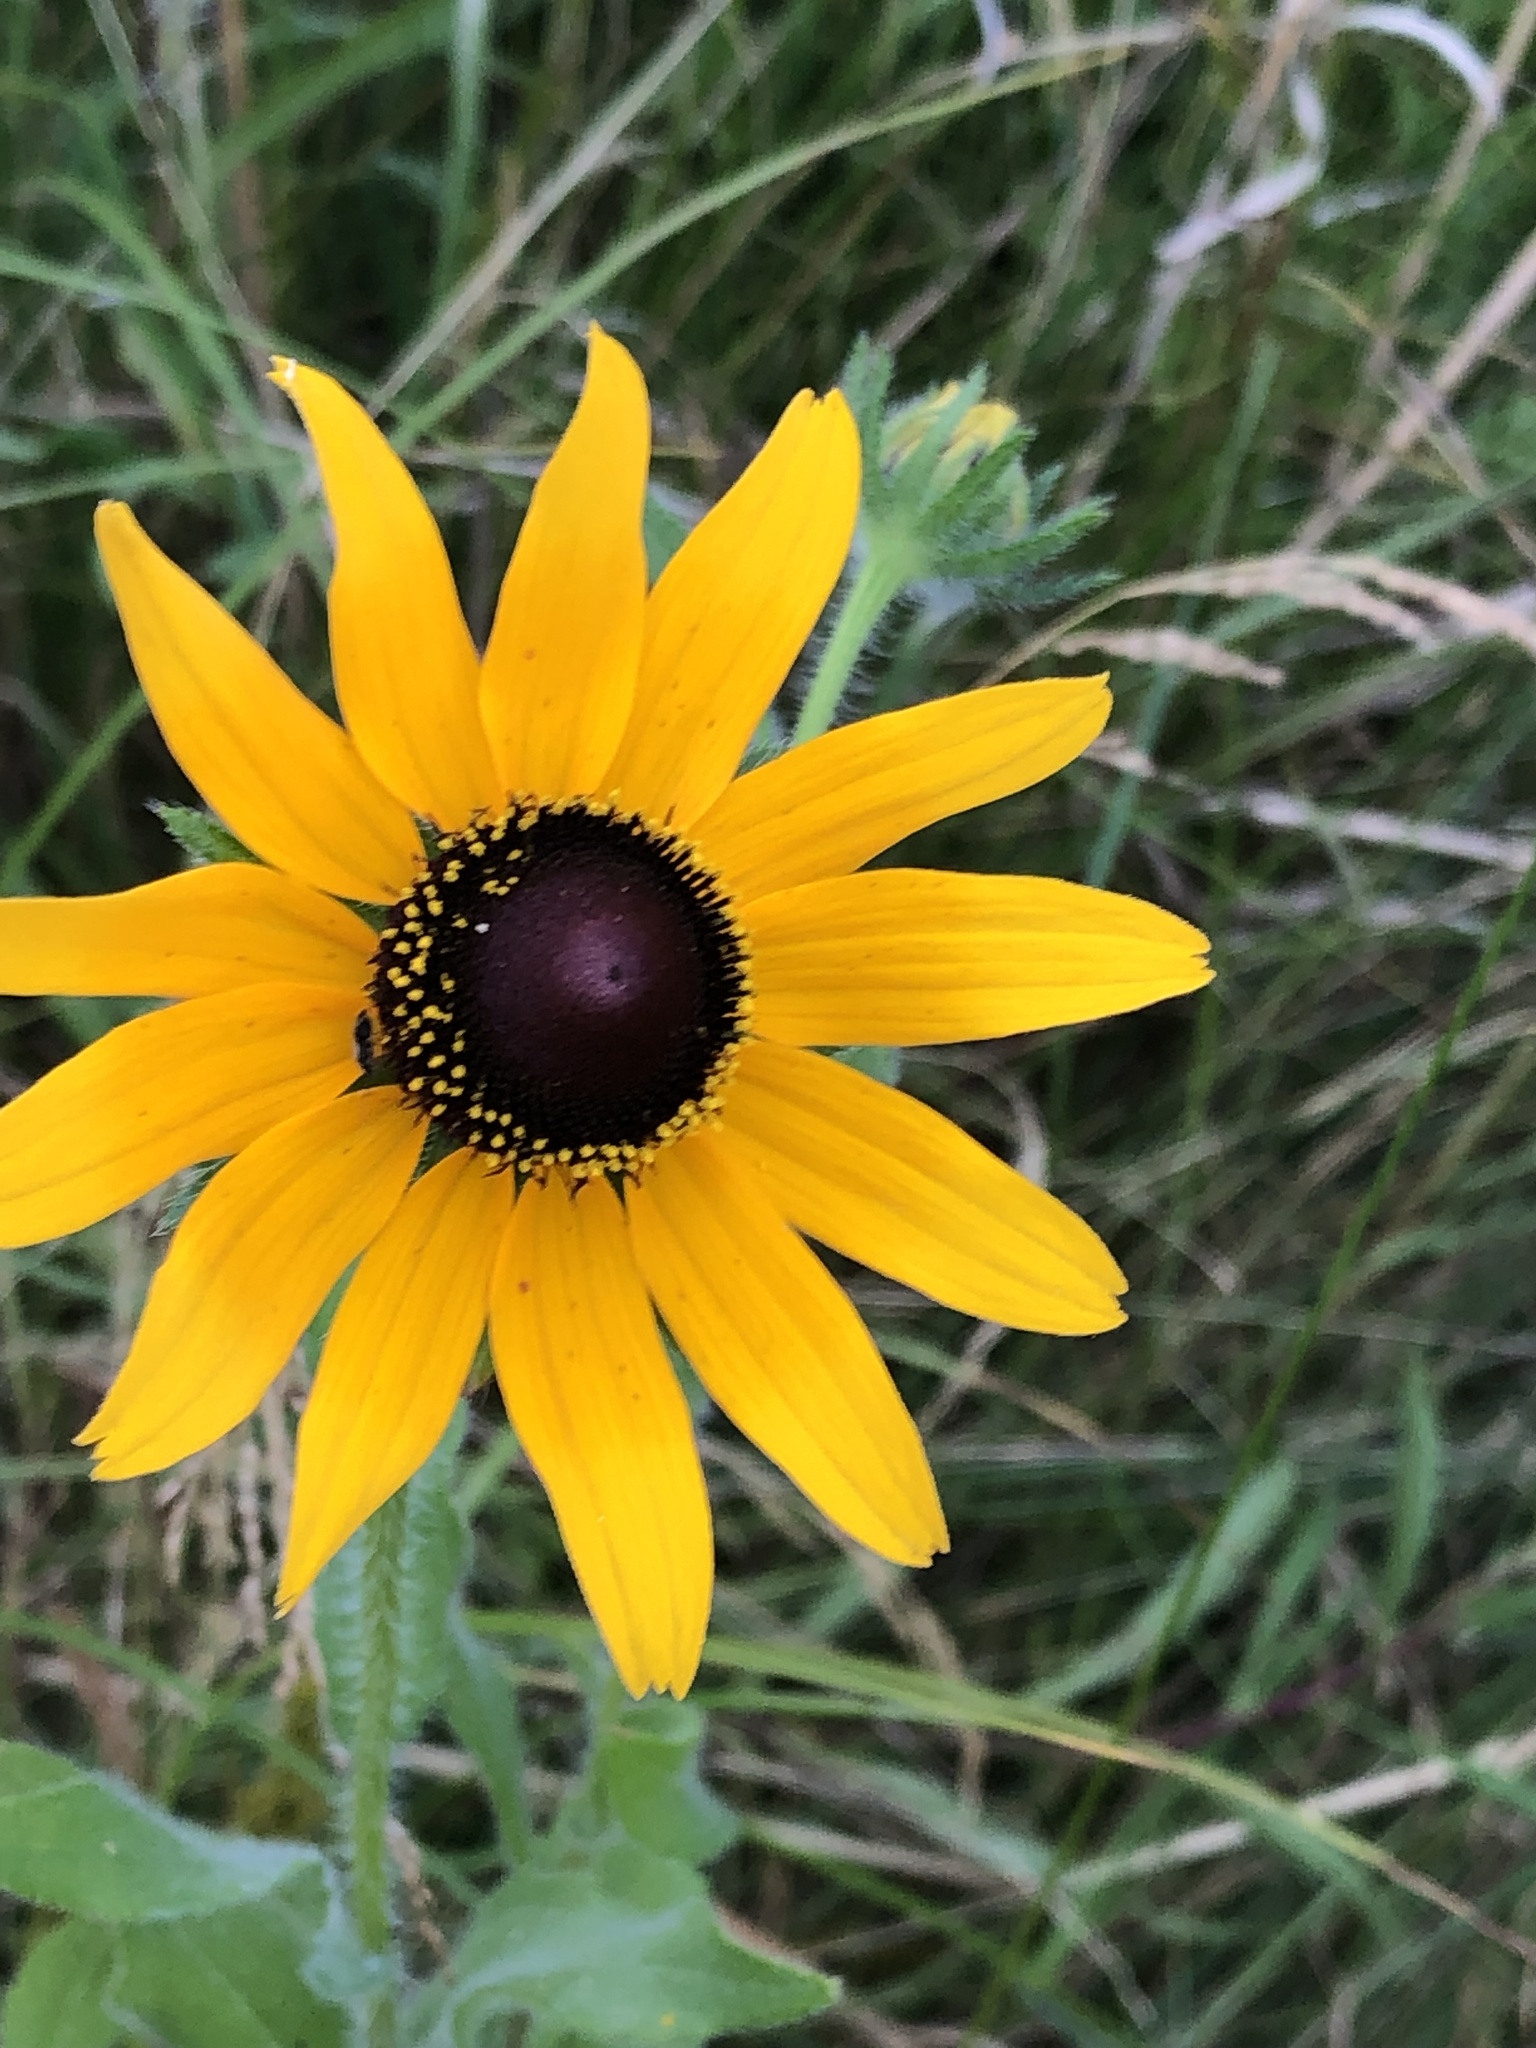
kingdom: Plantae
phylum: Tracheophyta
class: Magnoliopsida
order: Asterales
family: Asteraceae
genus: Rudbeckia
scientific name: Rudbeckia hirta
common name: Black-eyed-susan
